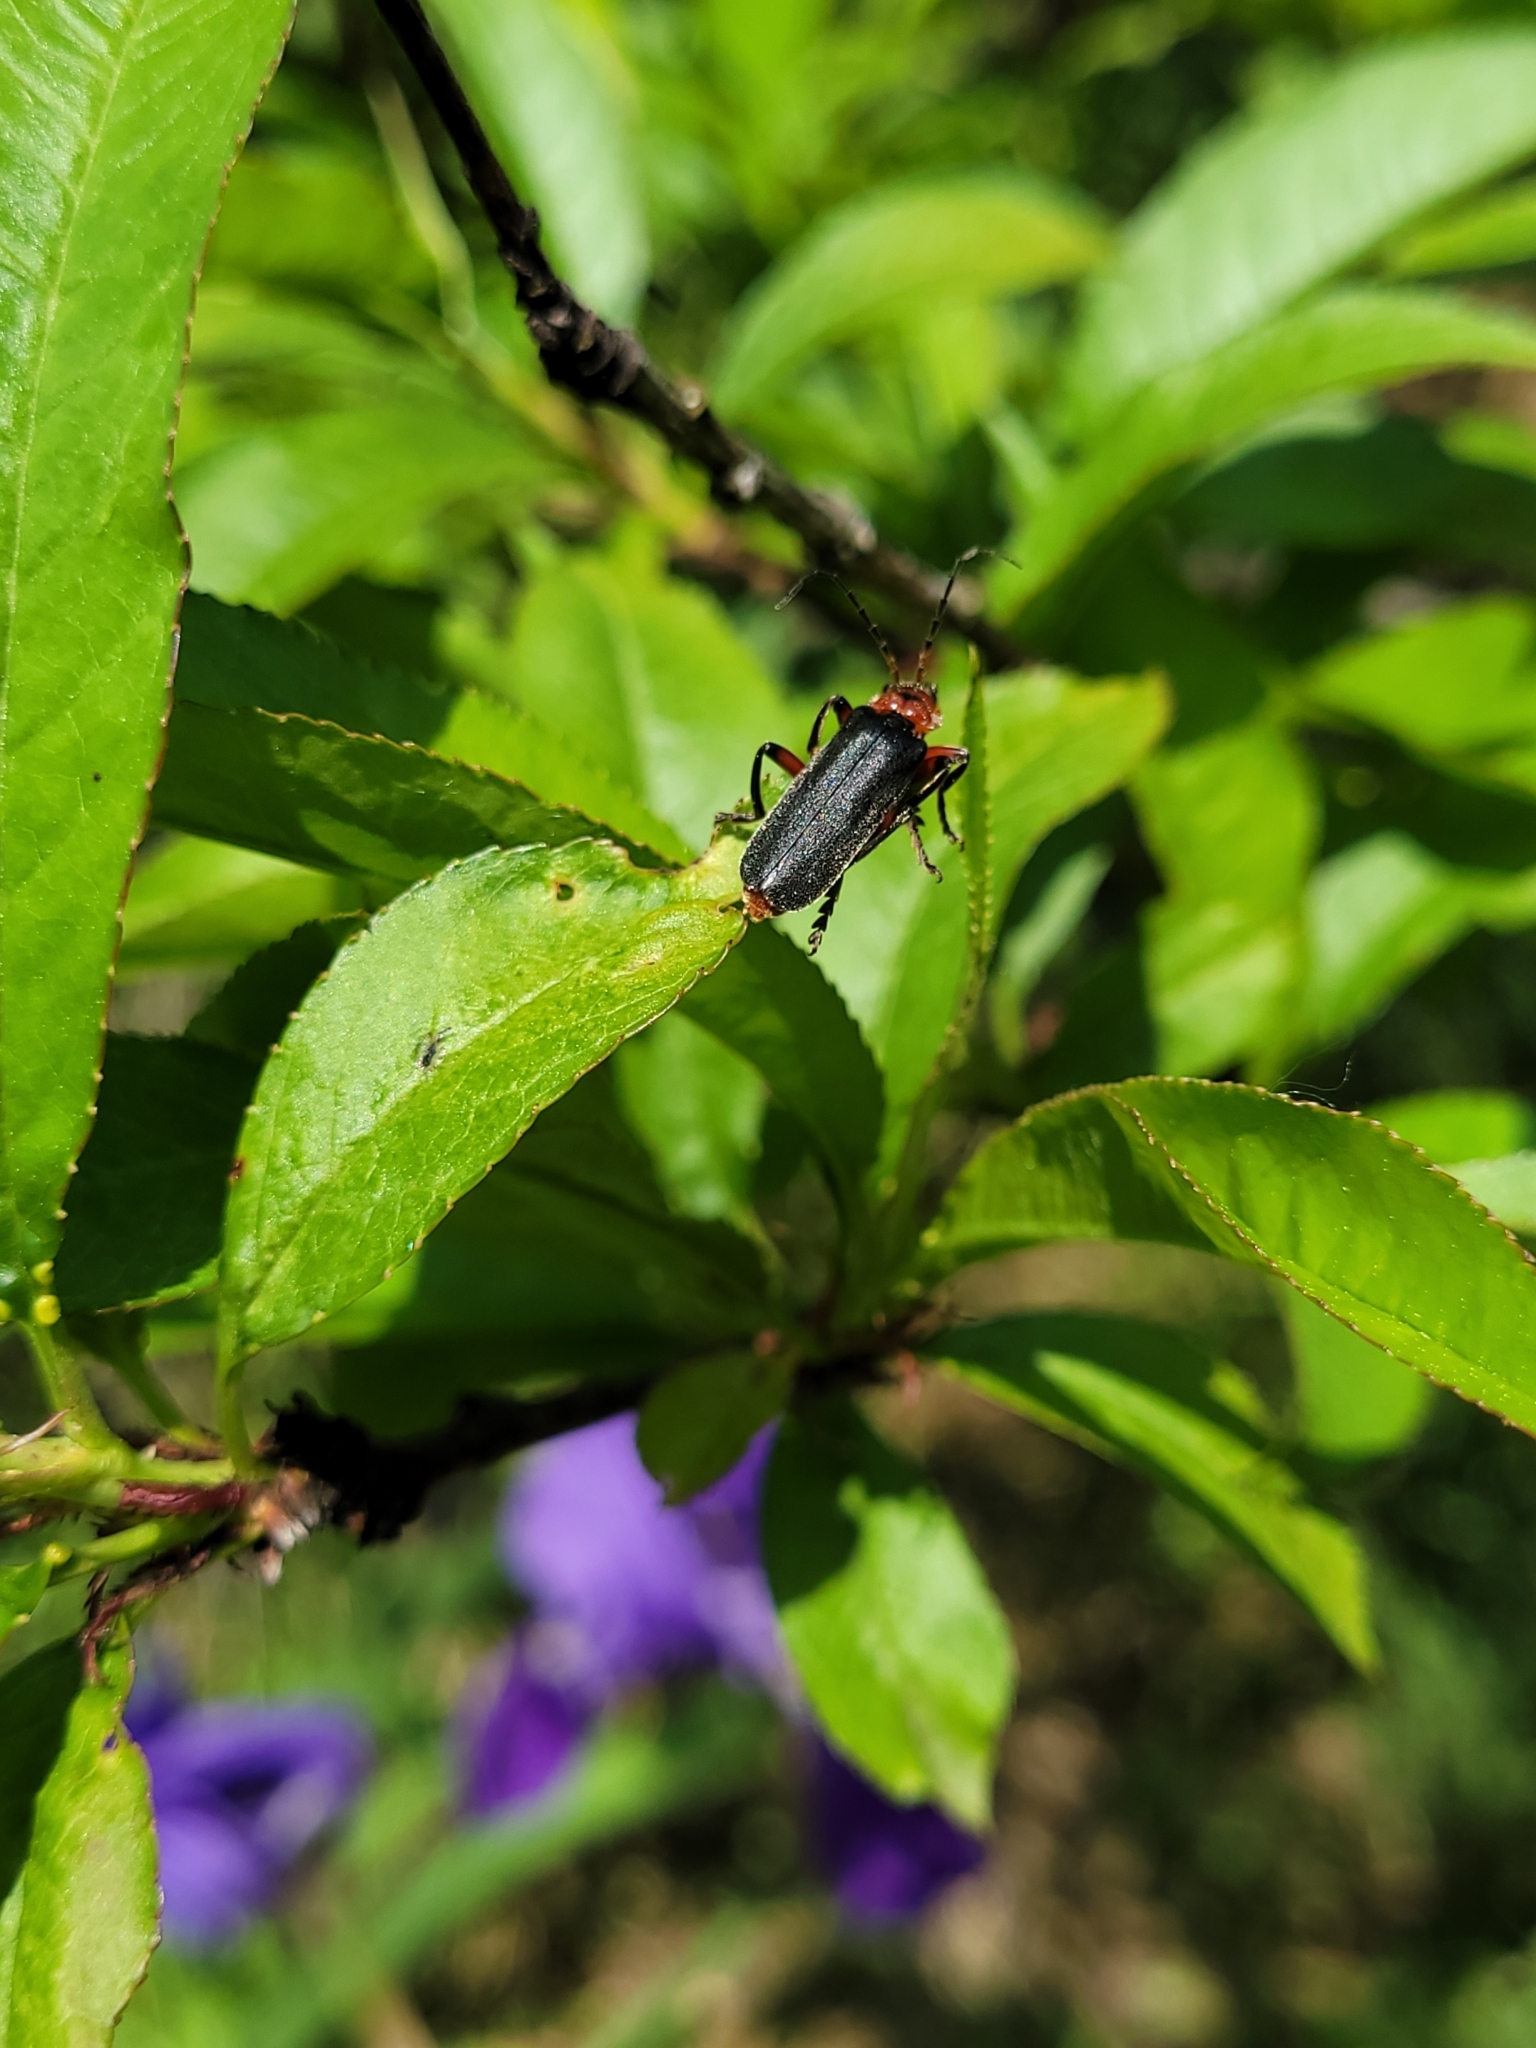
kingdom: Animalia
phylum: Arthropoda
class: Insecta
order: Coleoptera
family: Cantharidae
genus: Cantharis
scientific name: Cantharis rustica
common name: Soldier beetle
